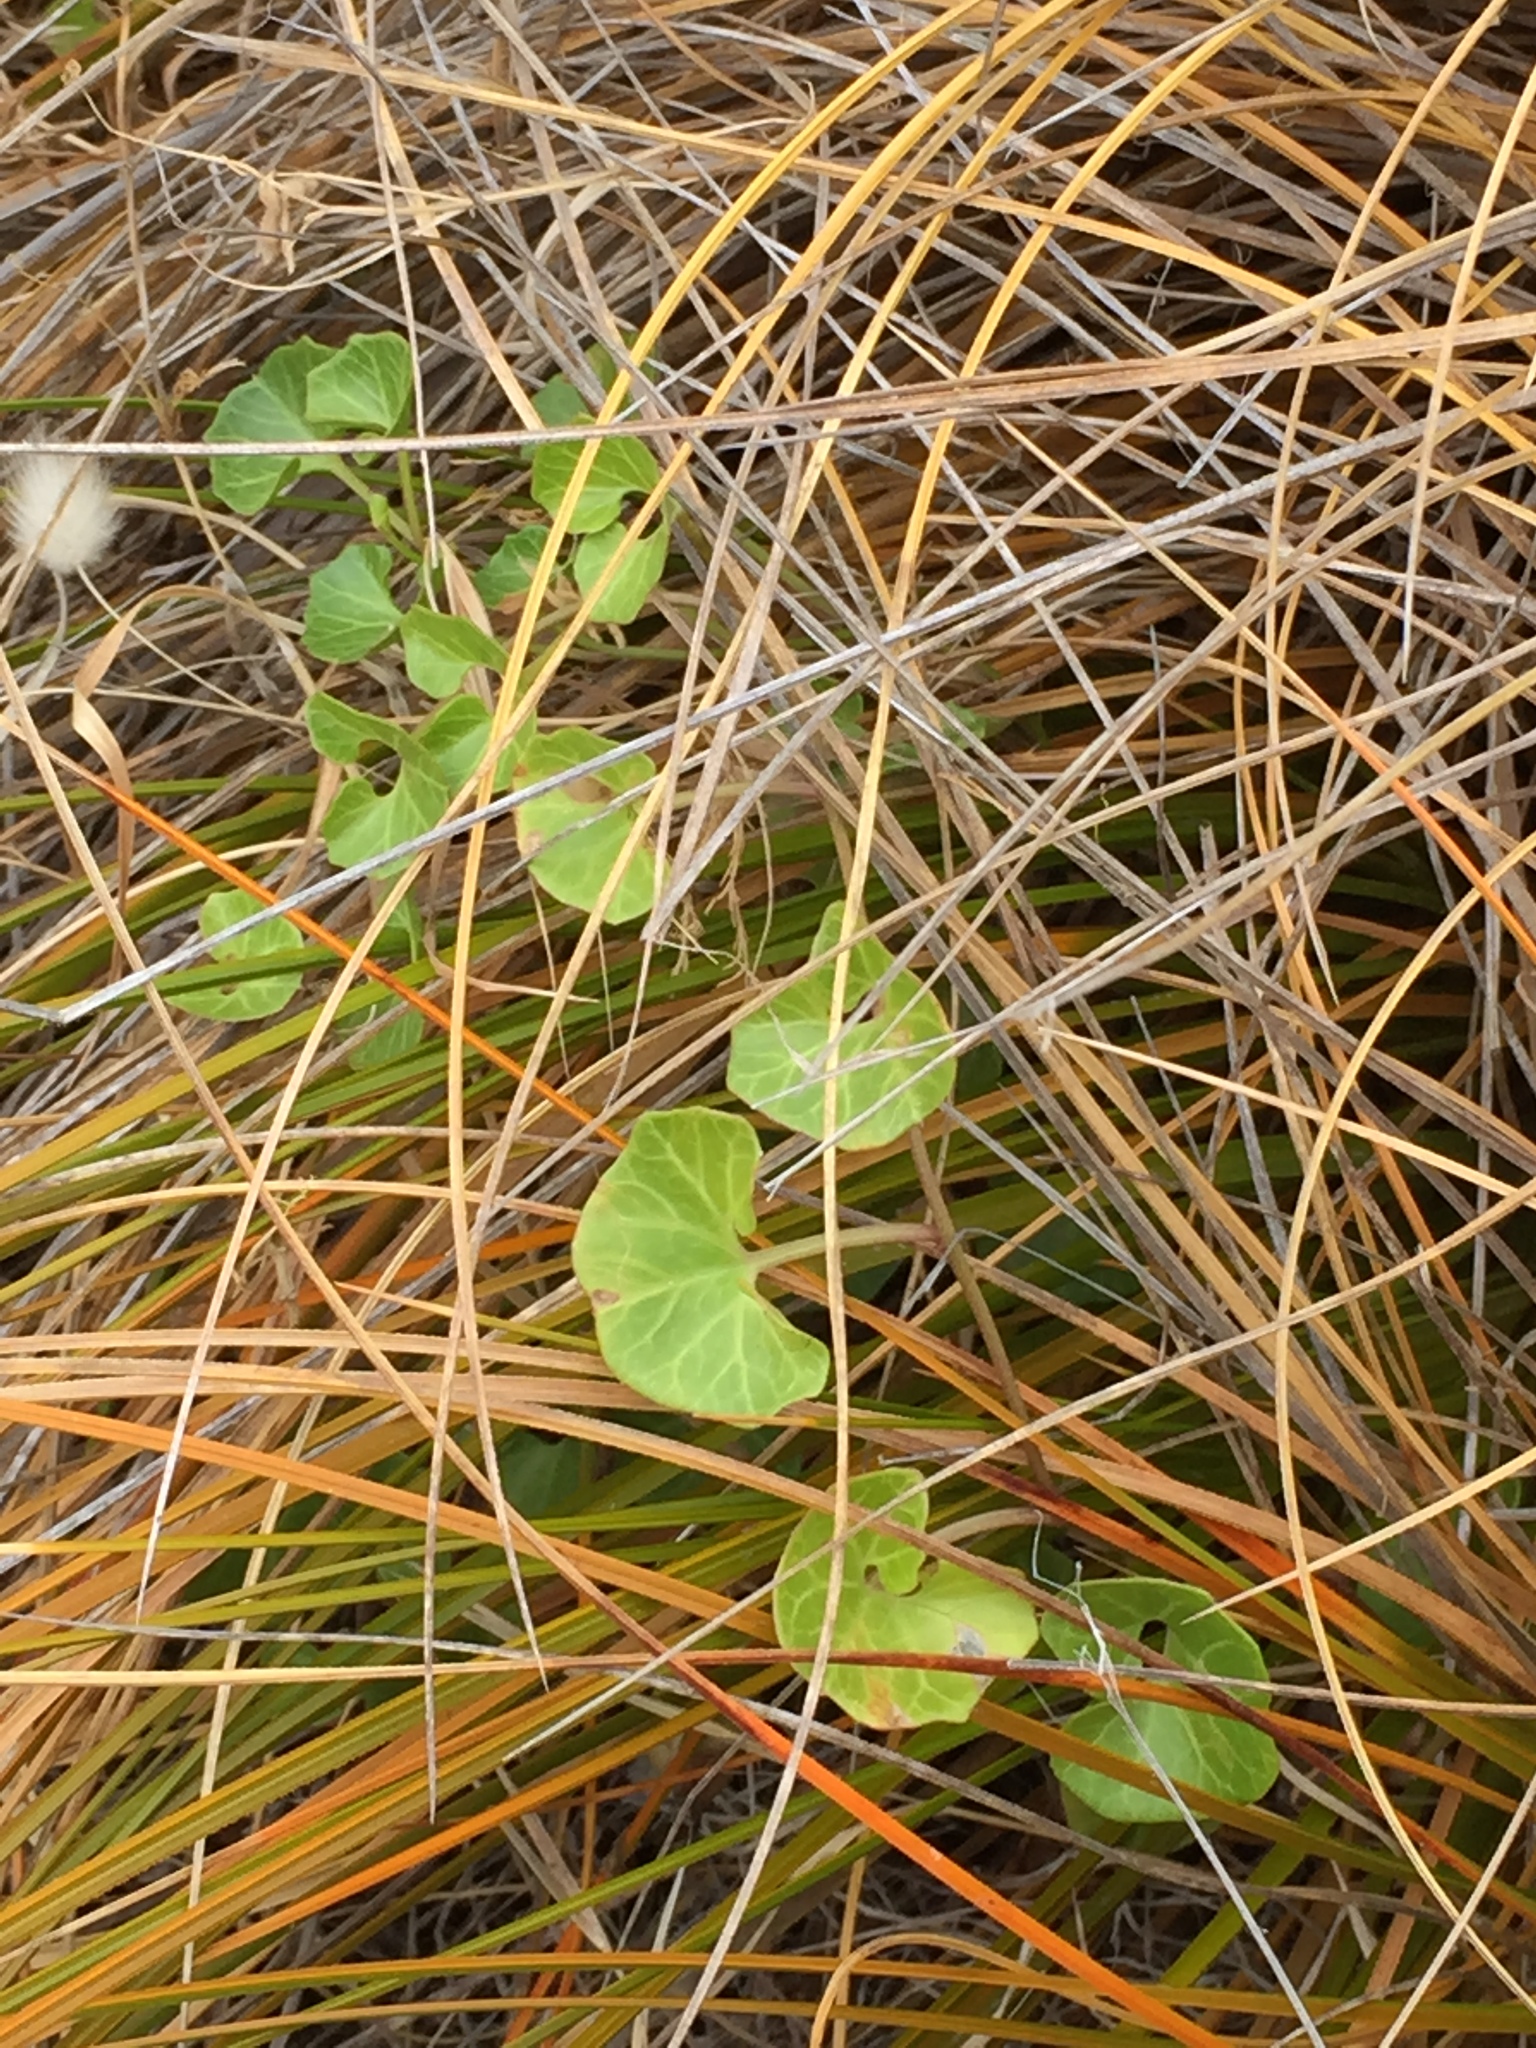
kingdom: Plantae
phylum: Tracheophyta
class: Magnoliopsida
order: Solanales
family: Convolvulaceae
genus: Calystegia
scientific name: Calystegia soldanella
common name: Sea bindweed
